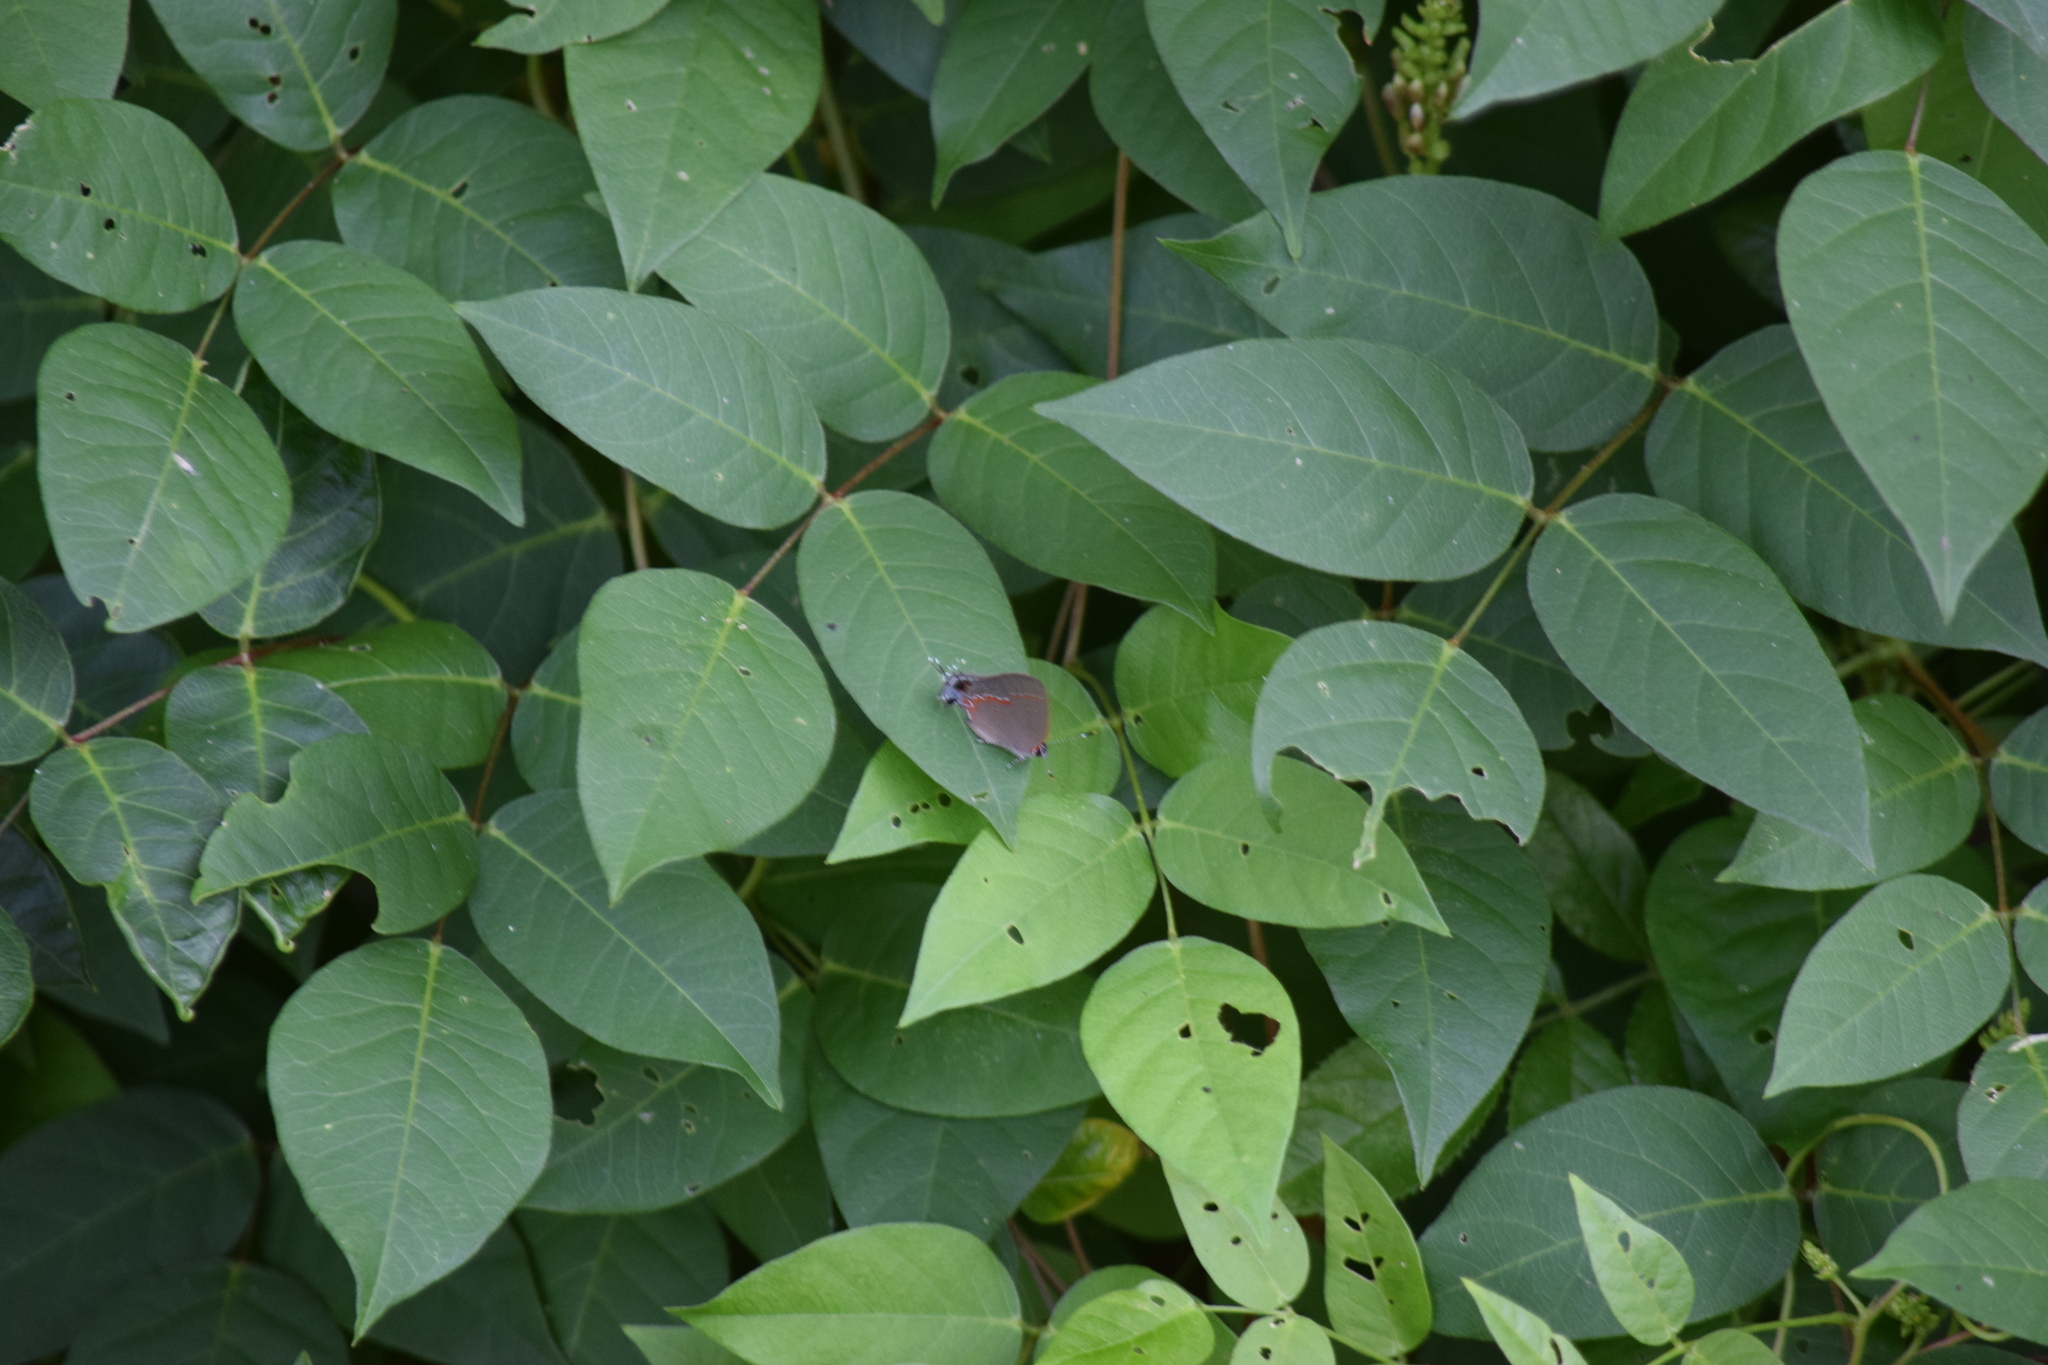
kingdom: Animalia
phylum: Arthropoda
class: Insecta
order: Lepidoptera
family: Lycaenidae
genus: Calycopis
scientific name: Calycopis cecrops
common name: Red-banded hairstreak
